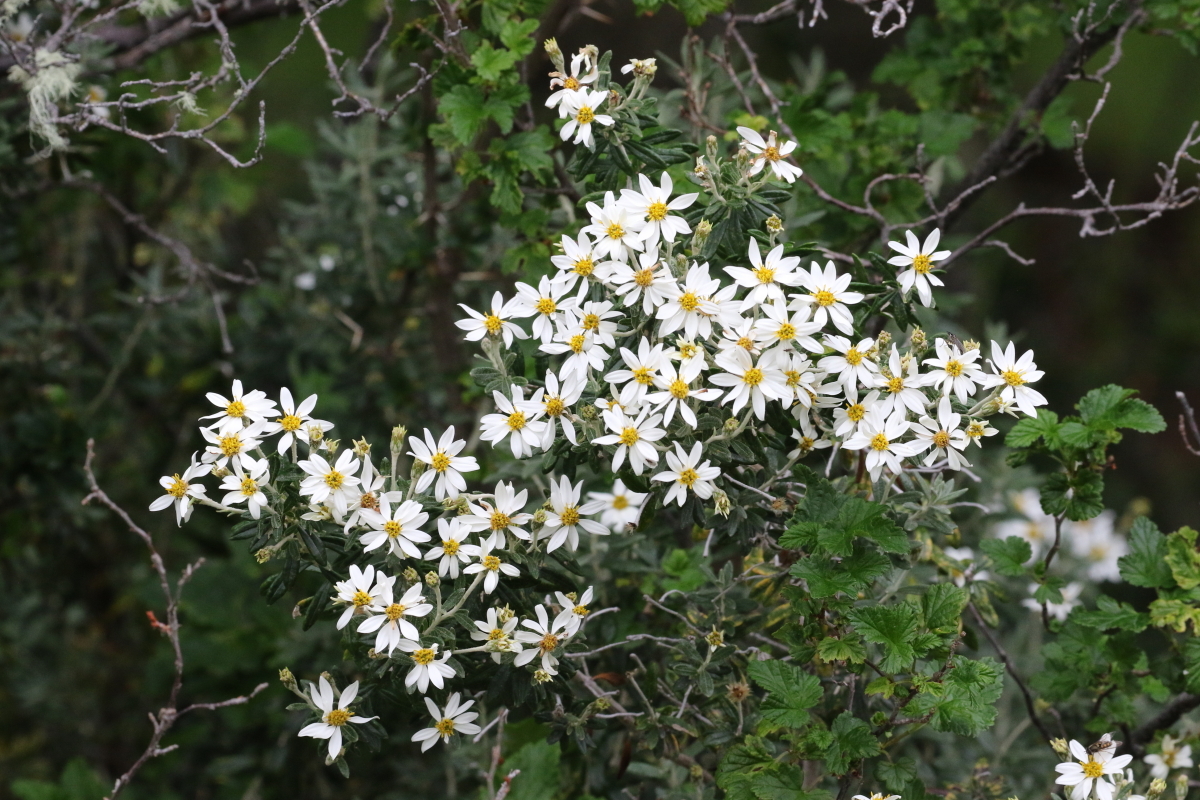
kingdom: Plantae
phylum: Tracheophyta
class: Magnoliopsida
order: Asterales
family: Asteraceae
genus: Chiliotrichum
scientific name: Chiliotrichum diffusum
